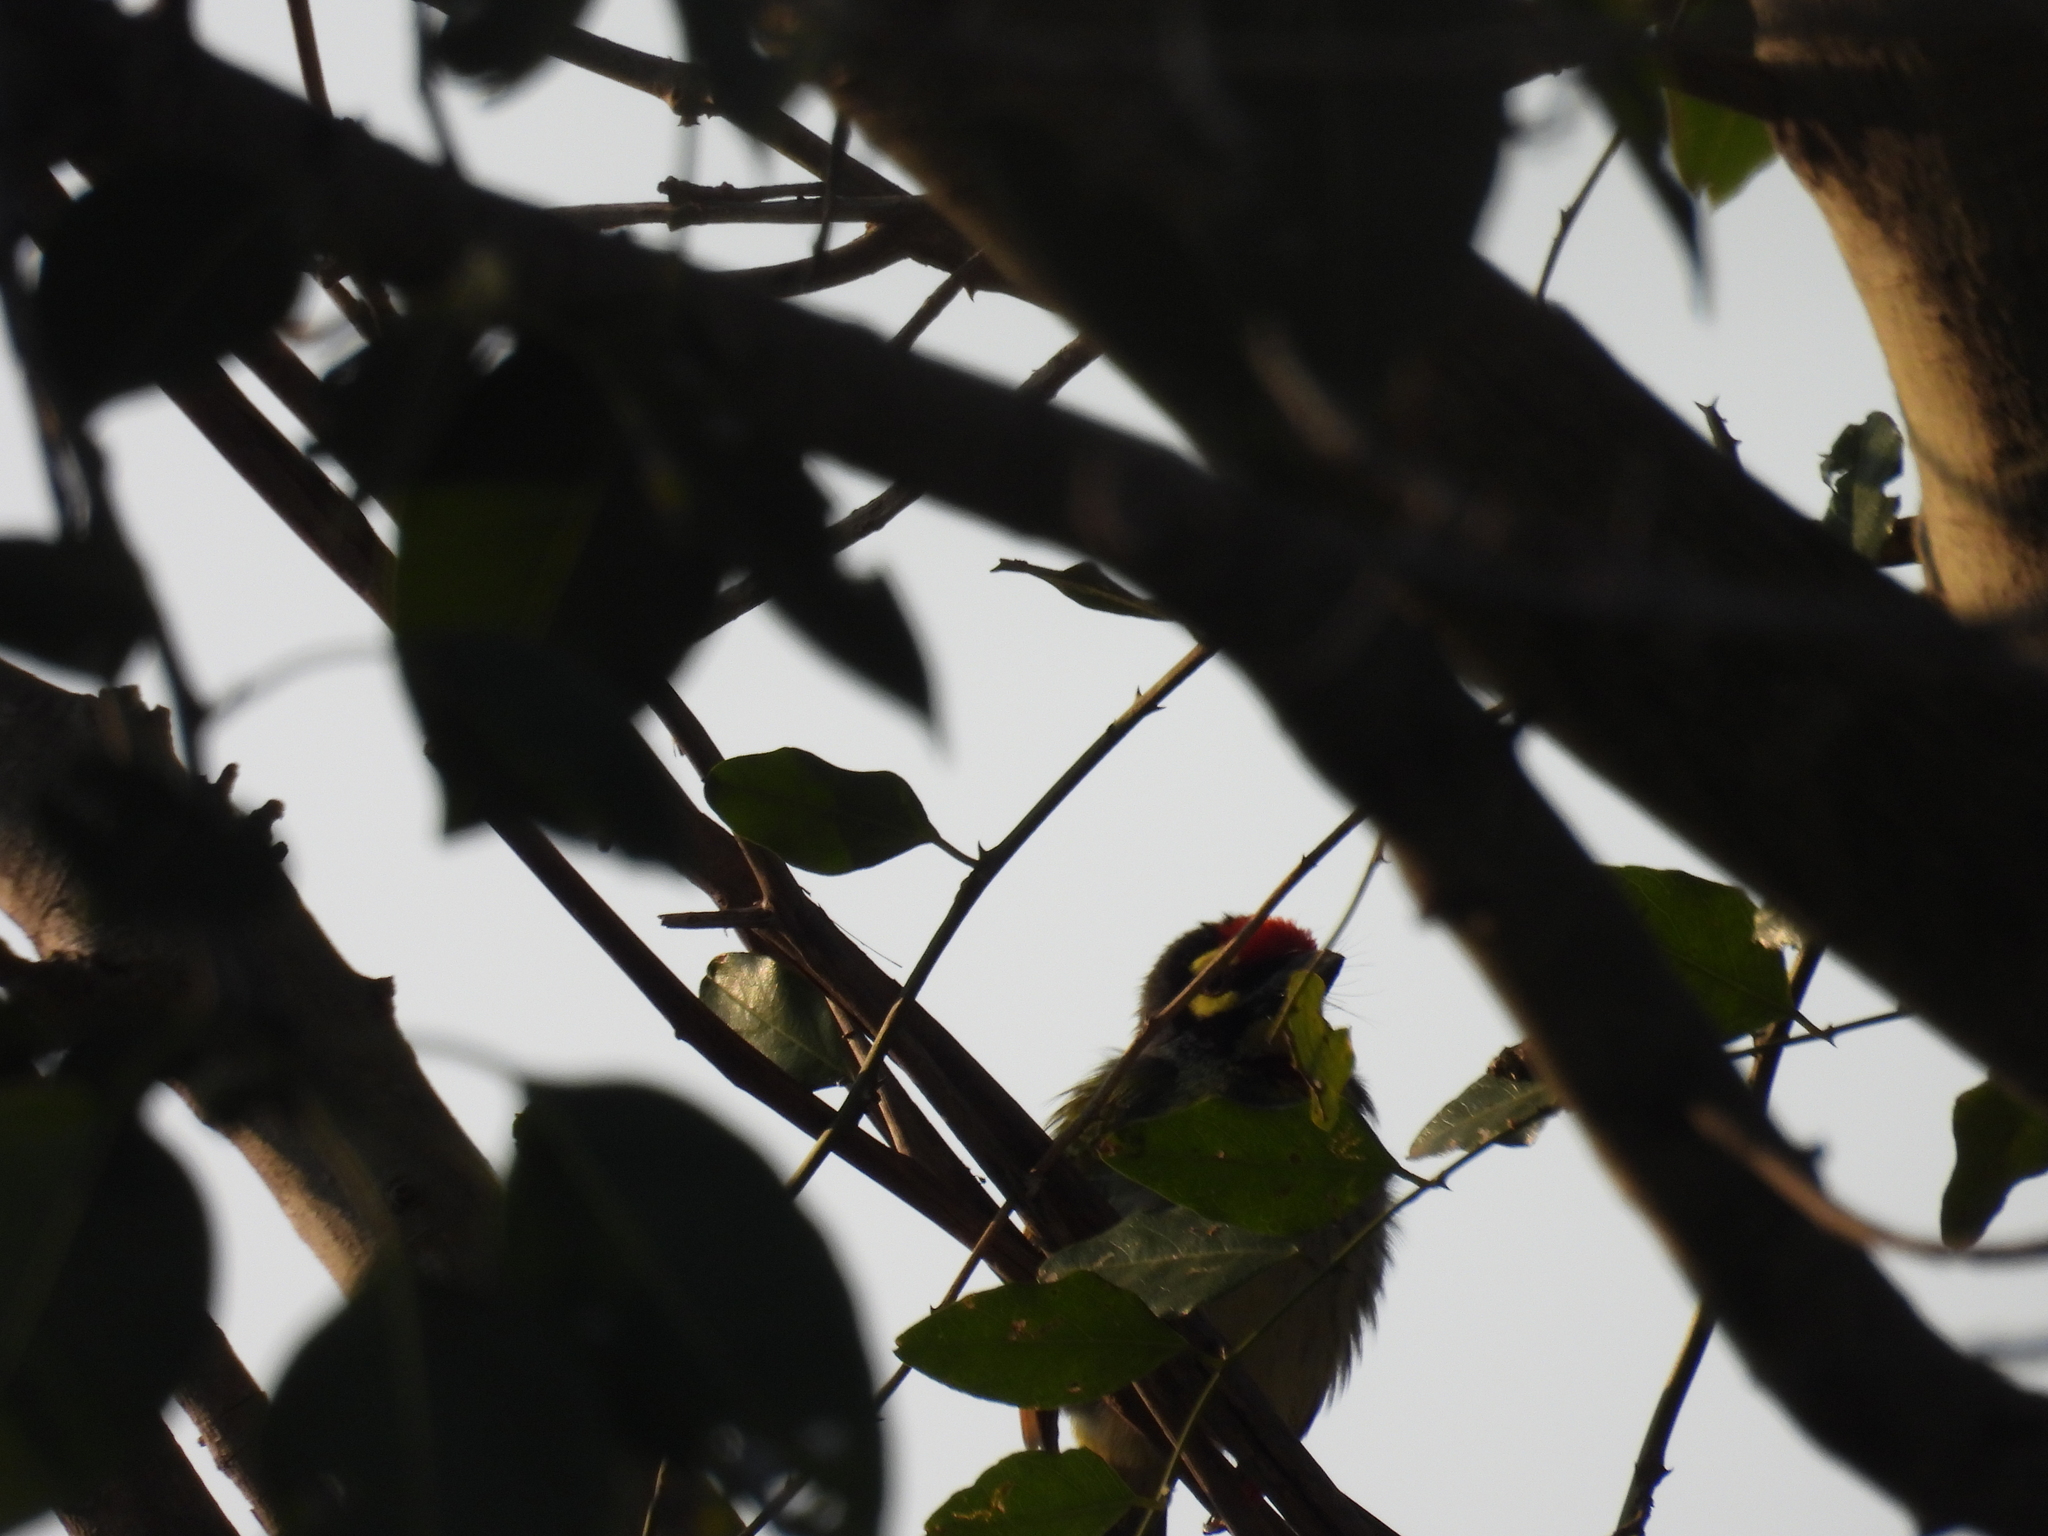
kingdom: Animalia
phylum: Chordata
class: Aves
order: Piciformes
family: Megalaimidae
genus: Psilopogon
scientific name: Psilopogon haemacephalus
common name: Coppersmith barbet
